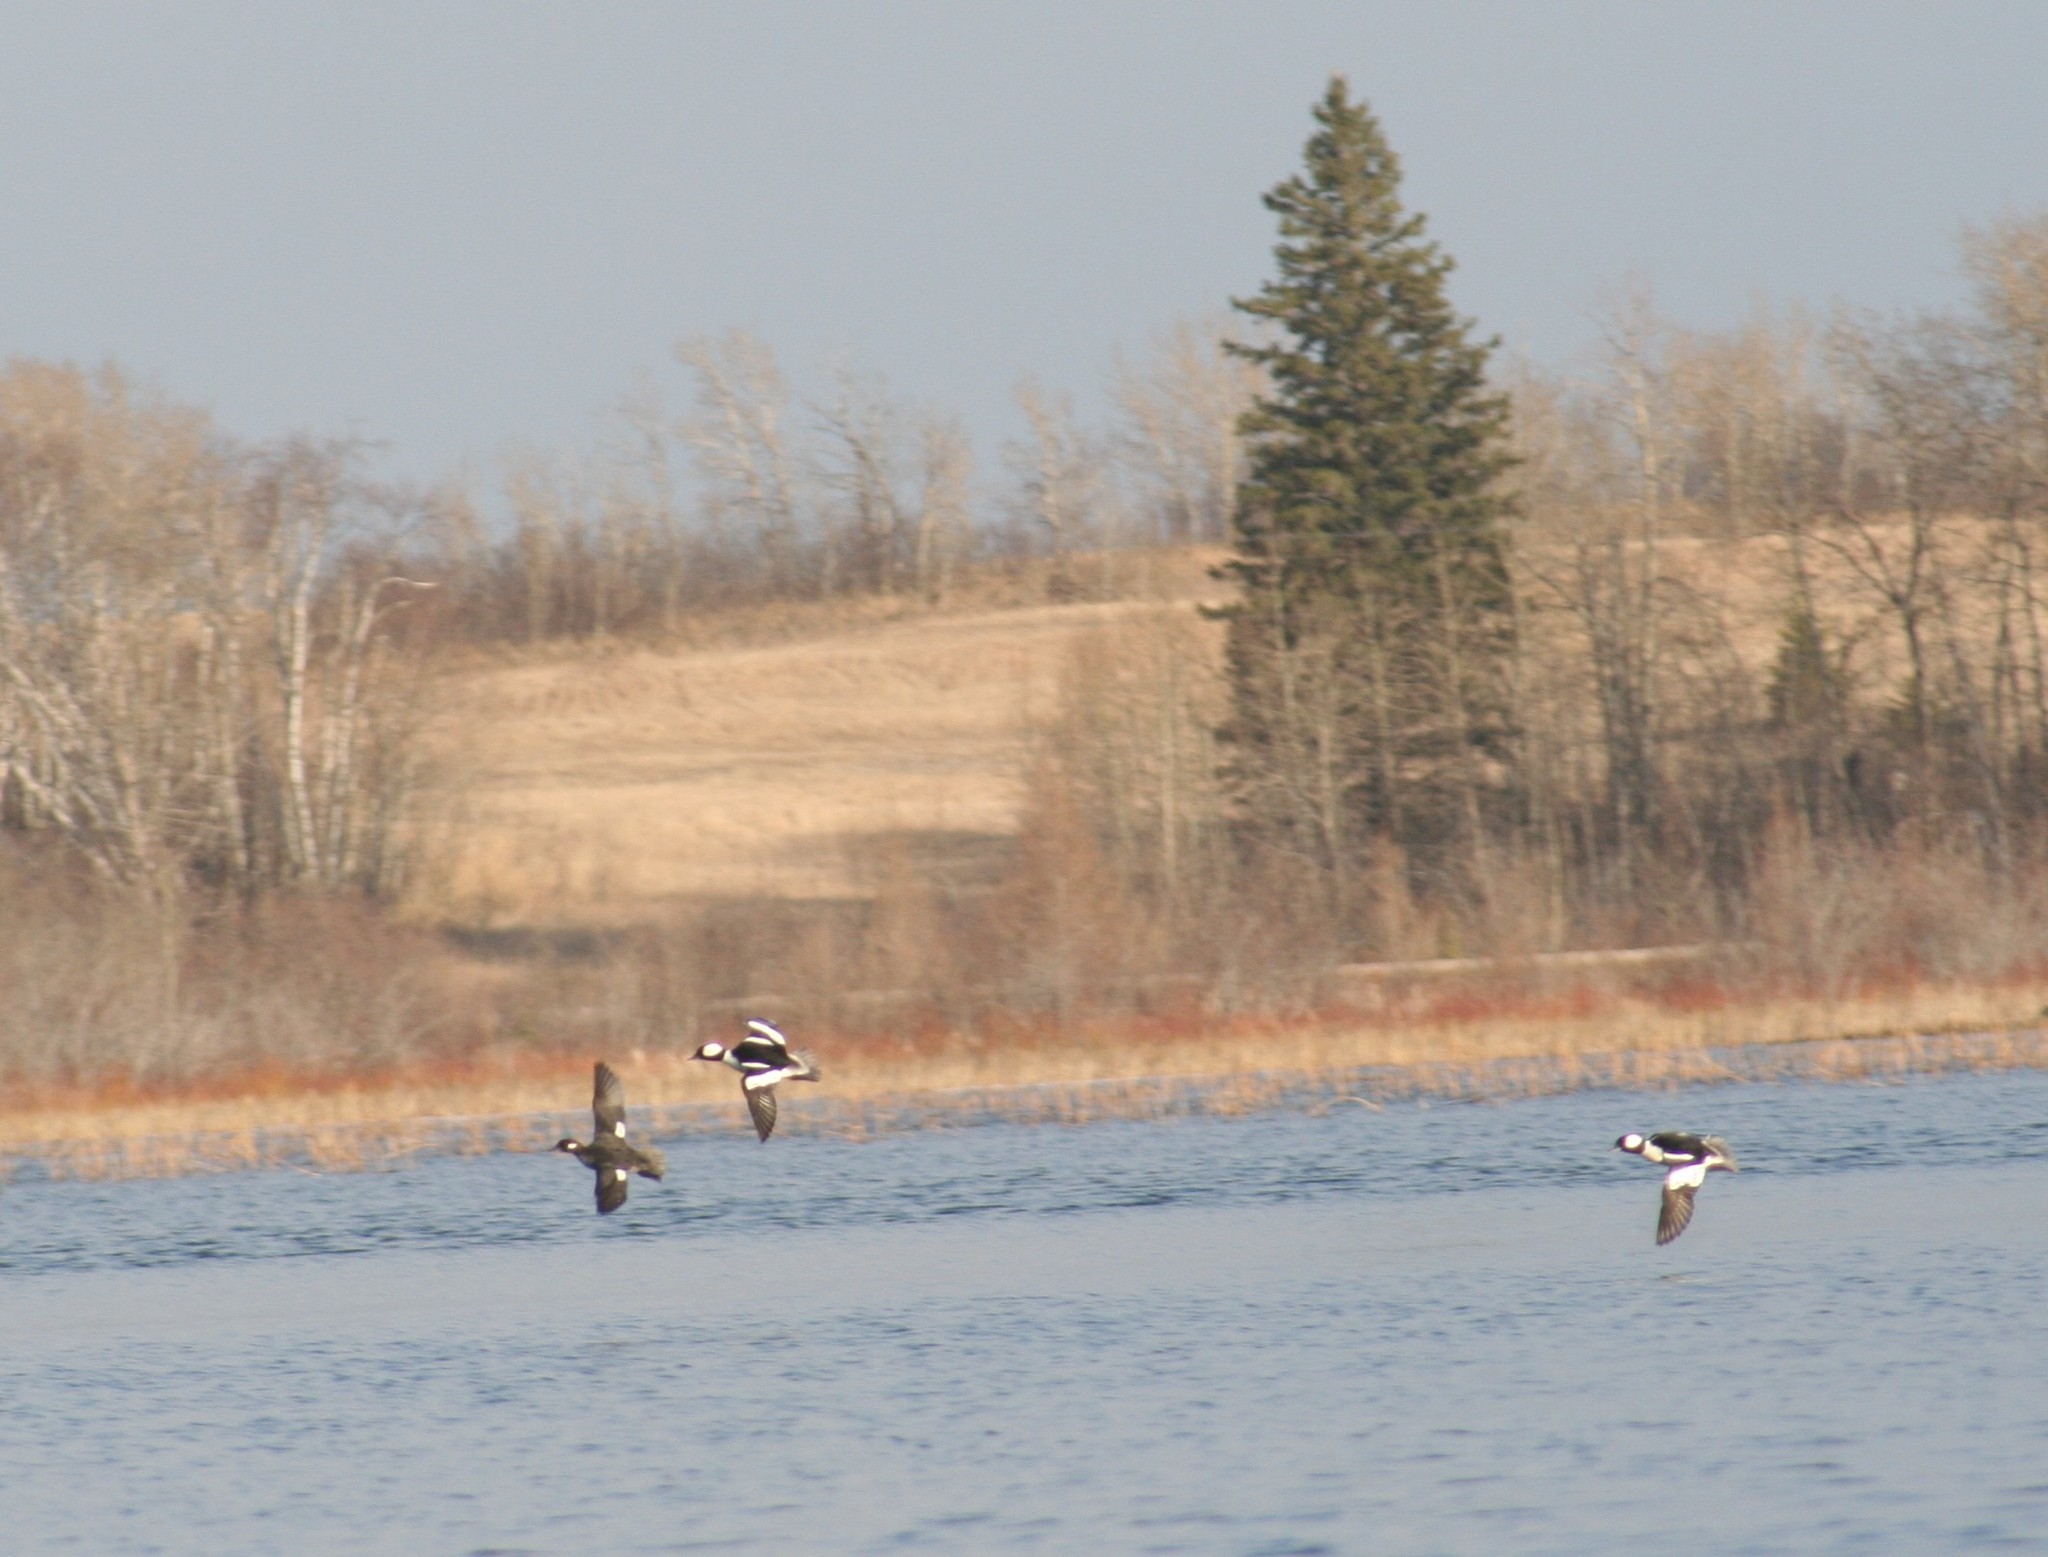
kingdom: Animalia
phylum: Chordata
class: Aves
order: Anseriformes
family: Anatidae
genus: Bucephala
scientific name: Bucephala albeola
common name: Bufflehead
